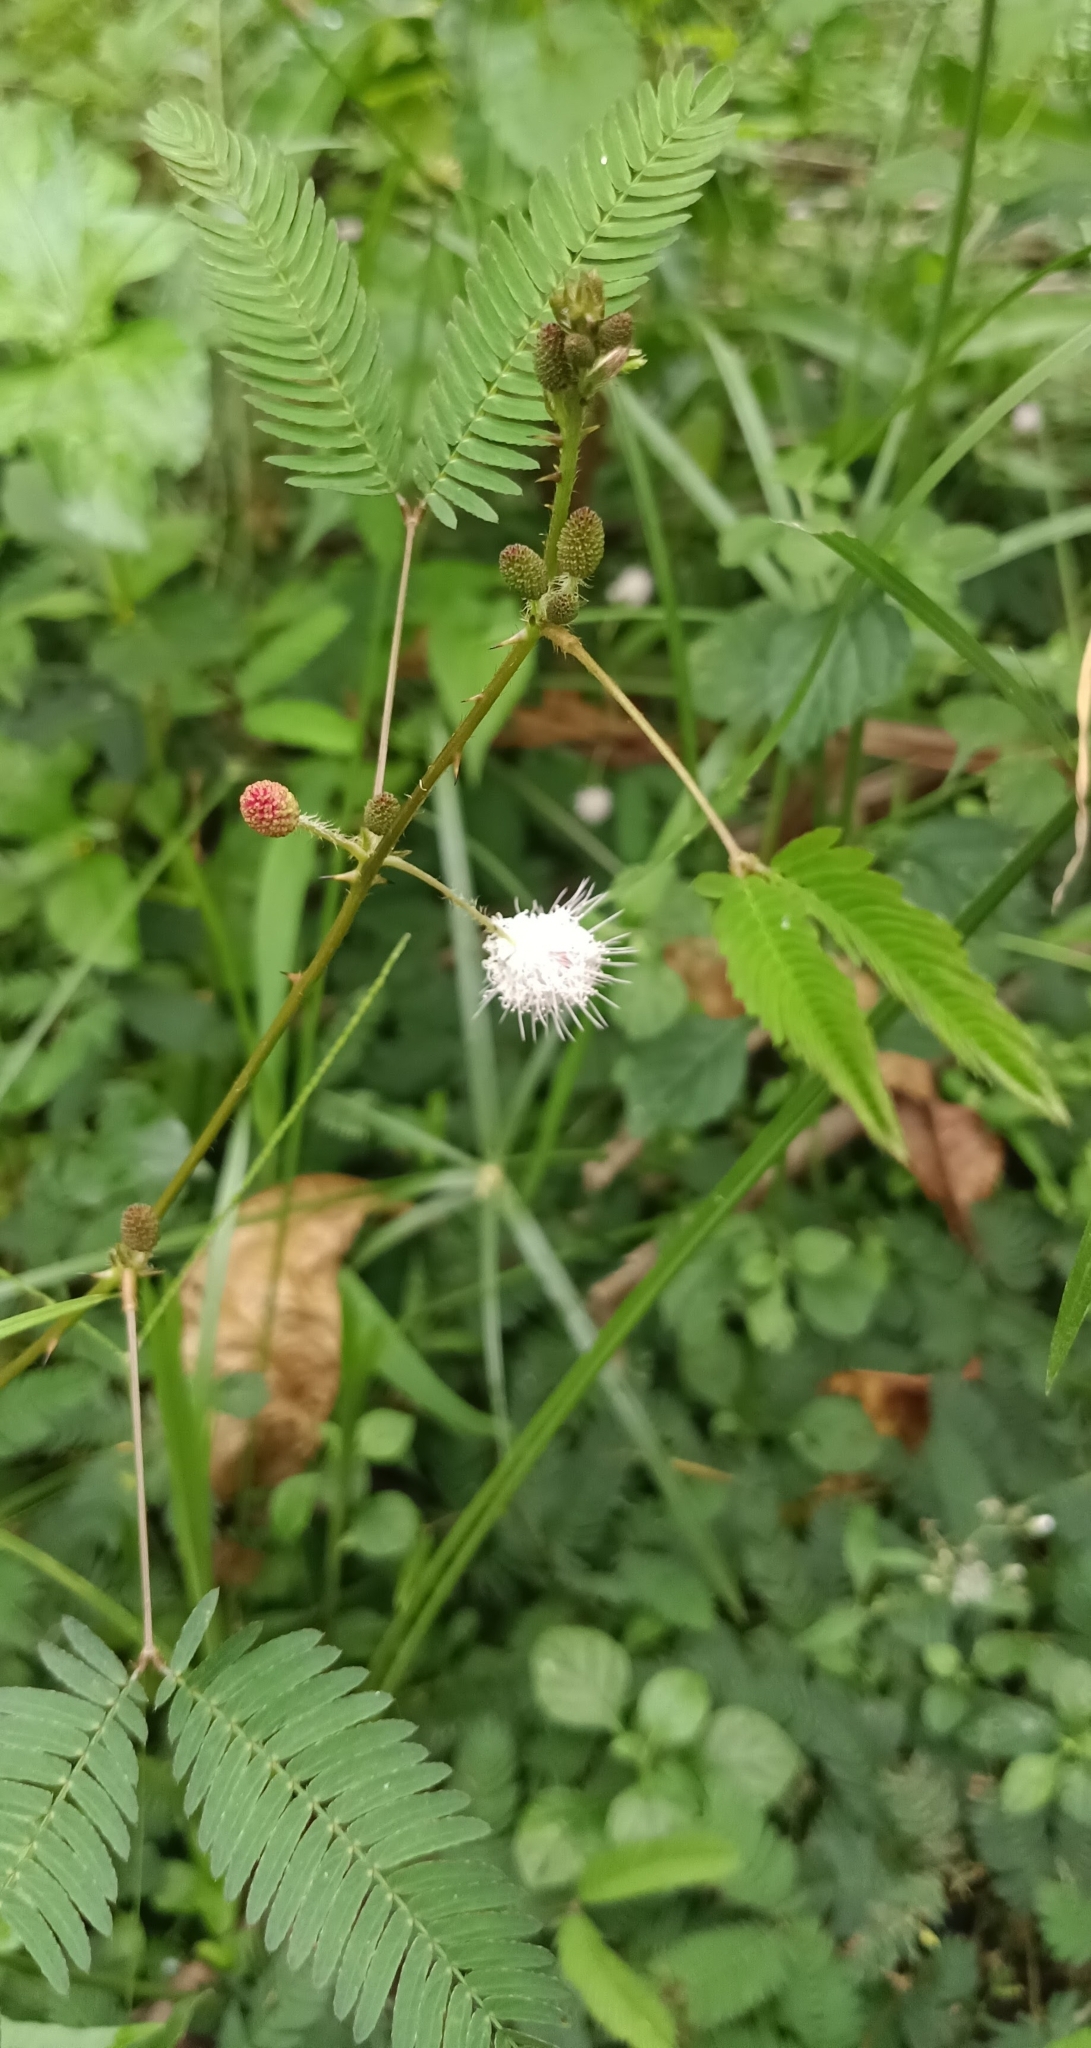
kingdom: Plantae
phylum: Tracheophyta
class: Magnoliopsida
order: Fabales
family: Fabaceae
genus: Mimosa
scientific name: Mimosa pudica
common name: Sensitive plant
